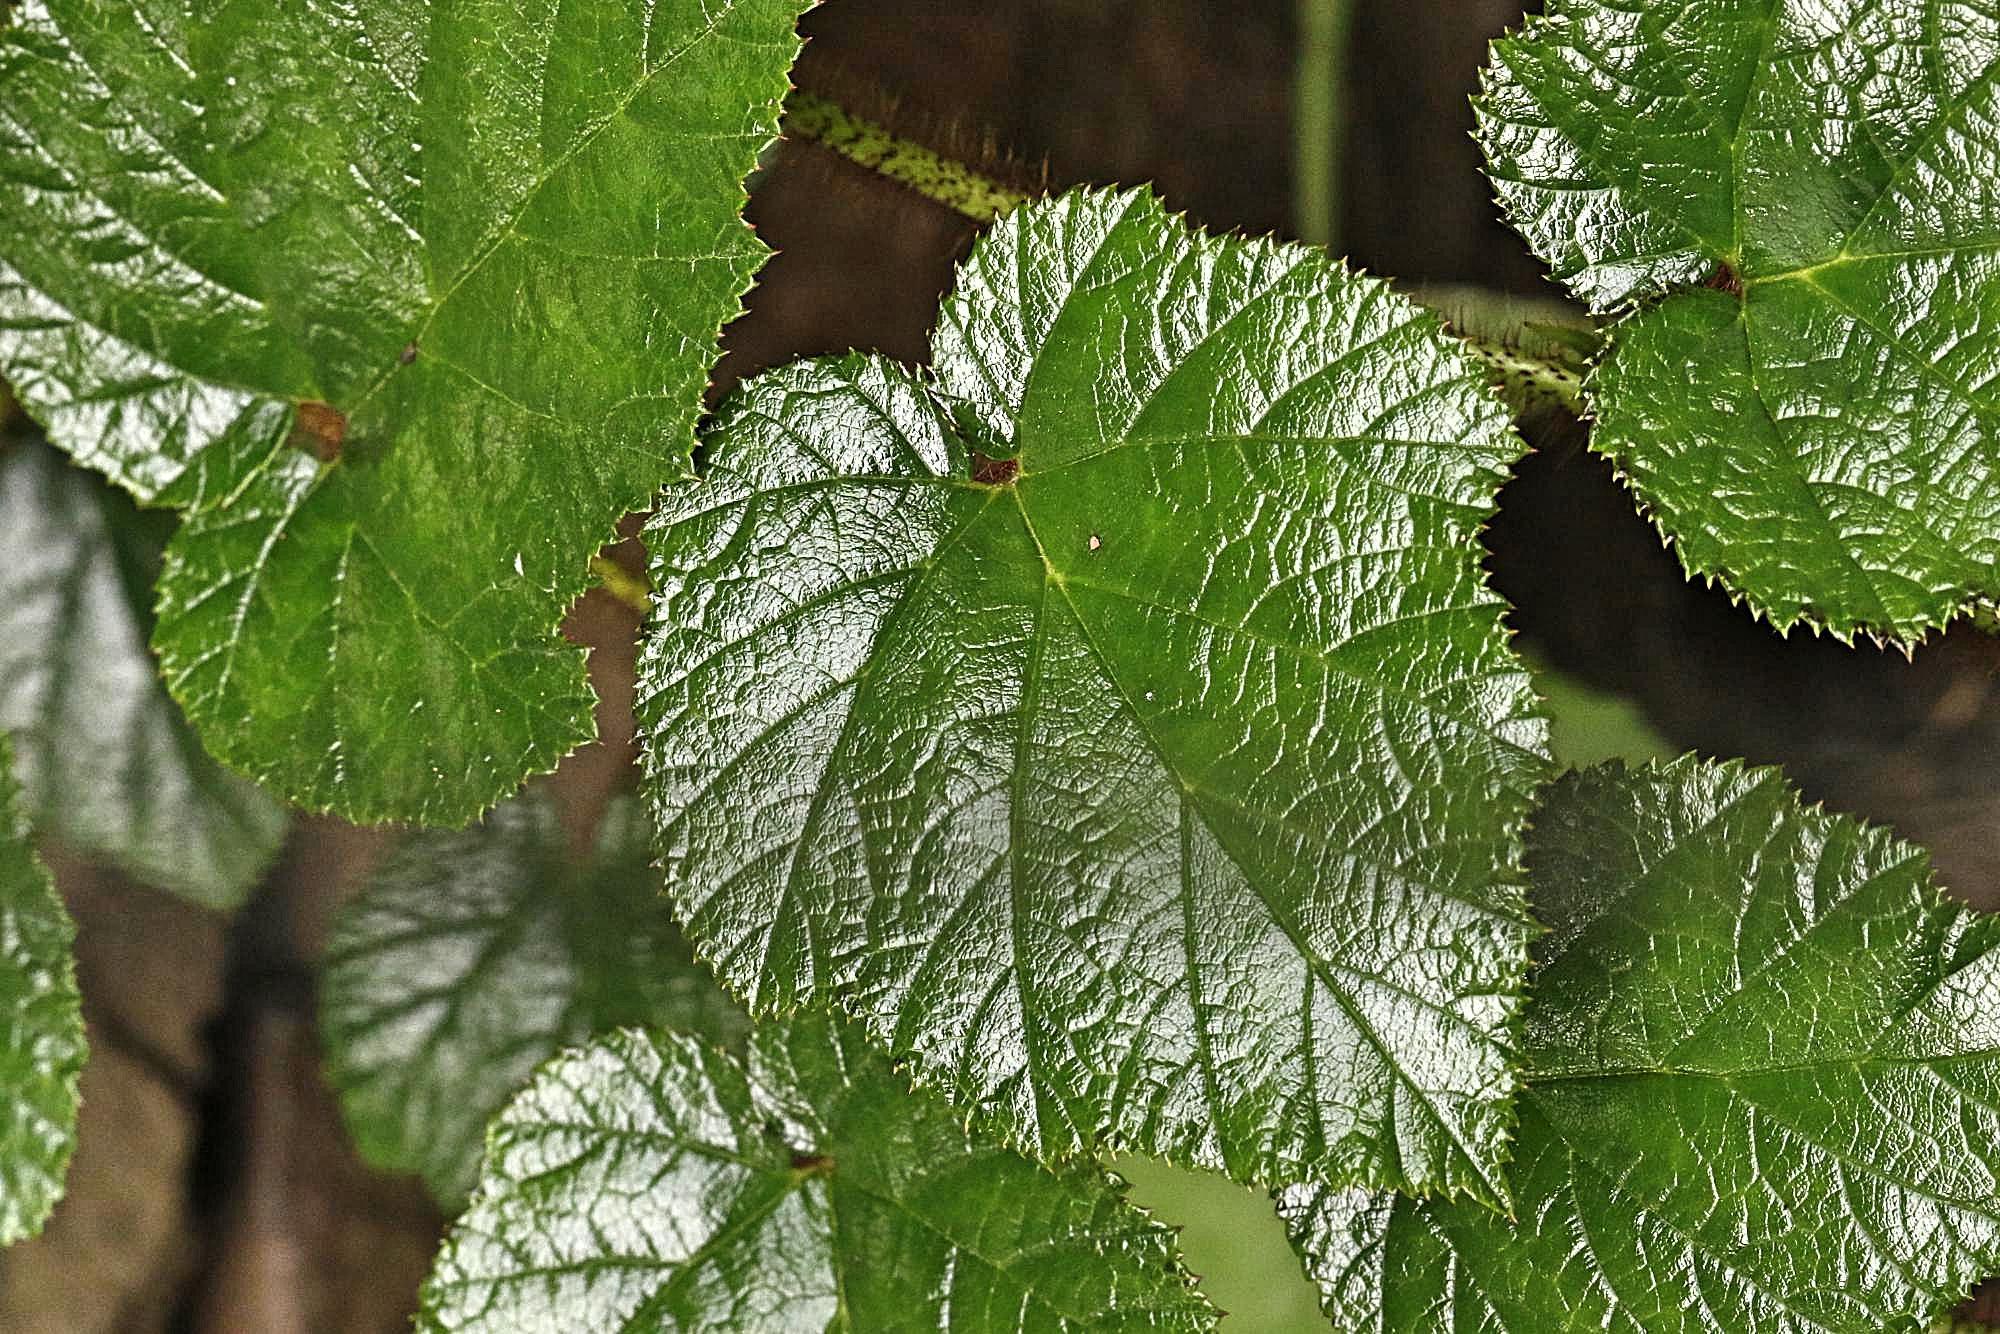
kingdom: Plantae
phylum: Tracheophyta
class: Magnoliopsida
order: Rosales
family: Rosaceae
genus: Rubus
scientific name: Rubus tricolor
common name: Chinese bramble
